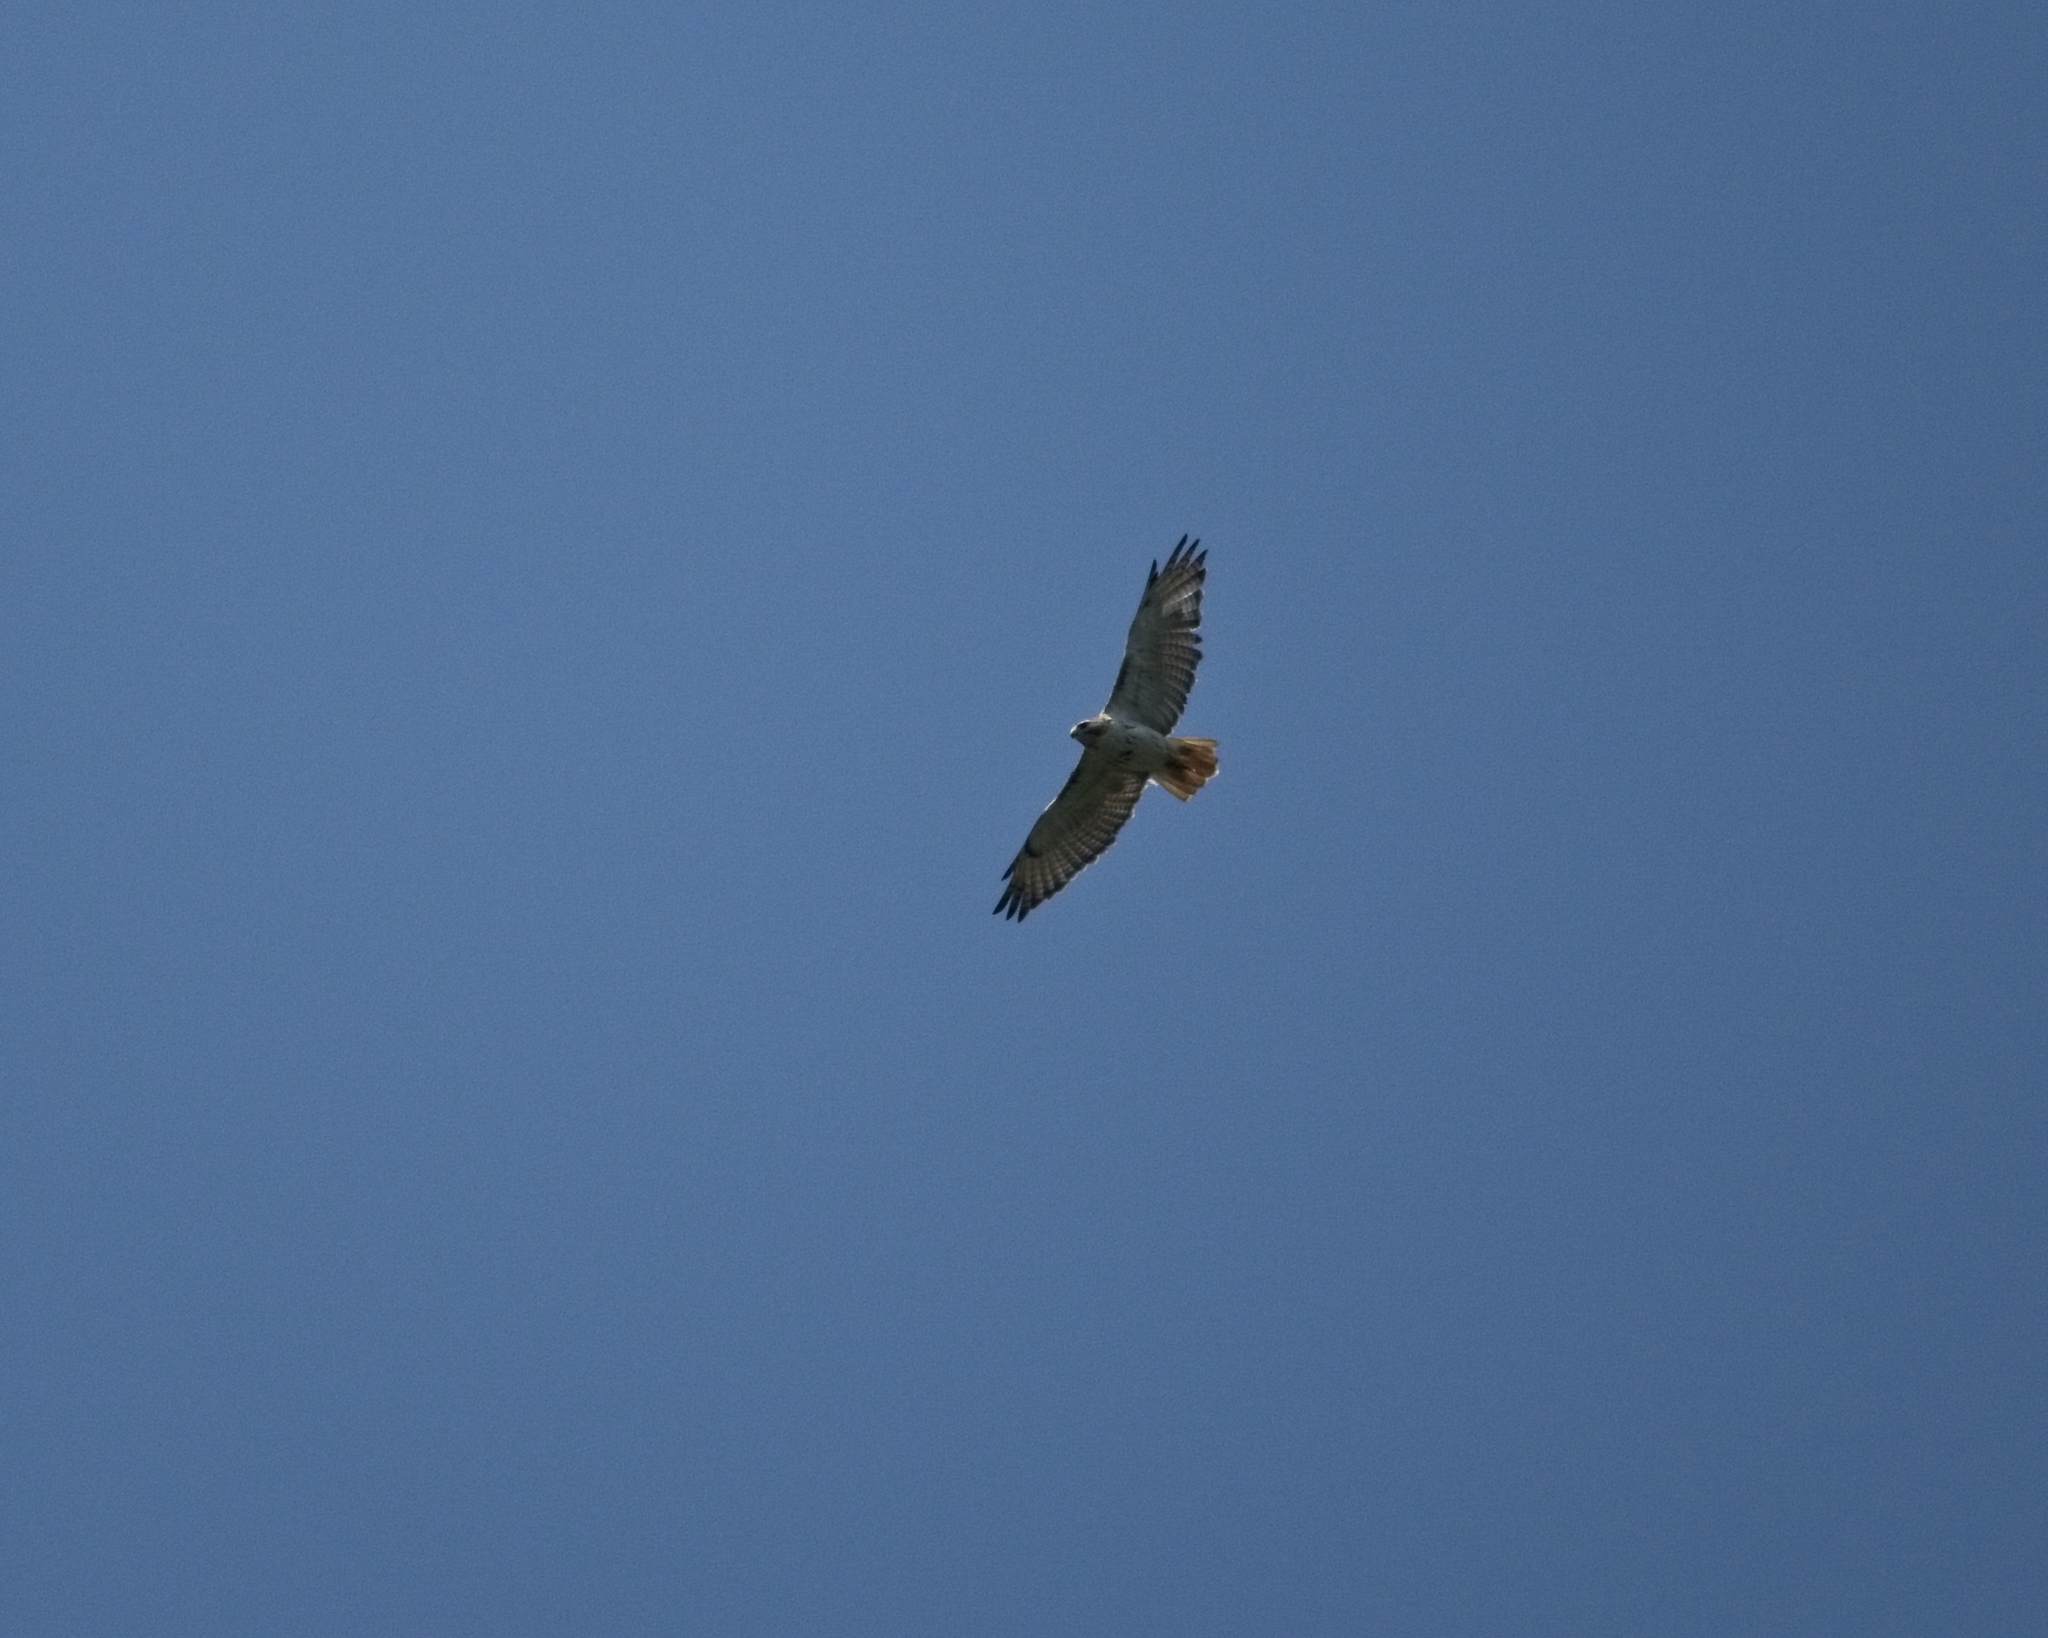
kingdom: Animalia
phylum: Chordata
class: Aves
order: Accipitriformes
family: Accipitridae
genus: Buteo
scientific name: Buteo jamaicensis
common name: Red-tailed hawk
